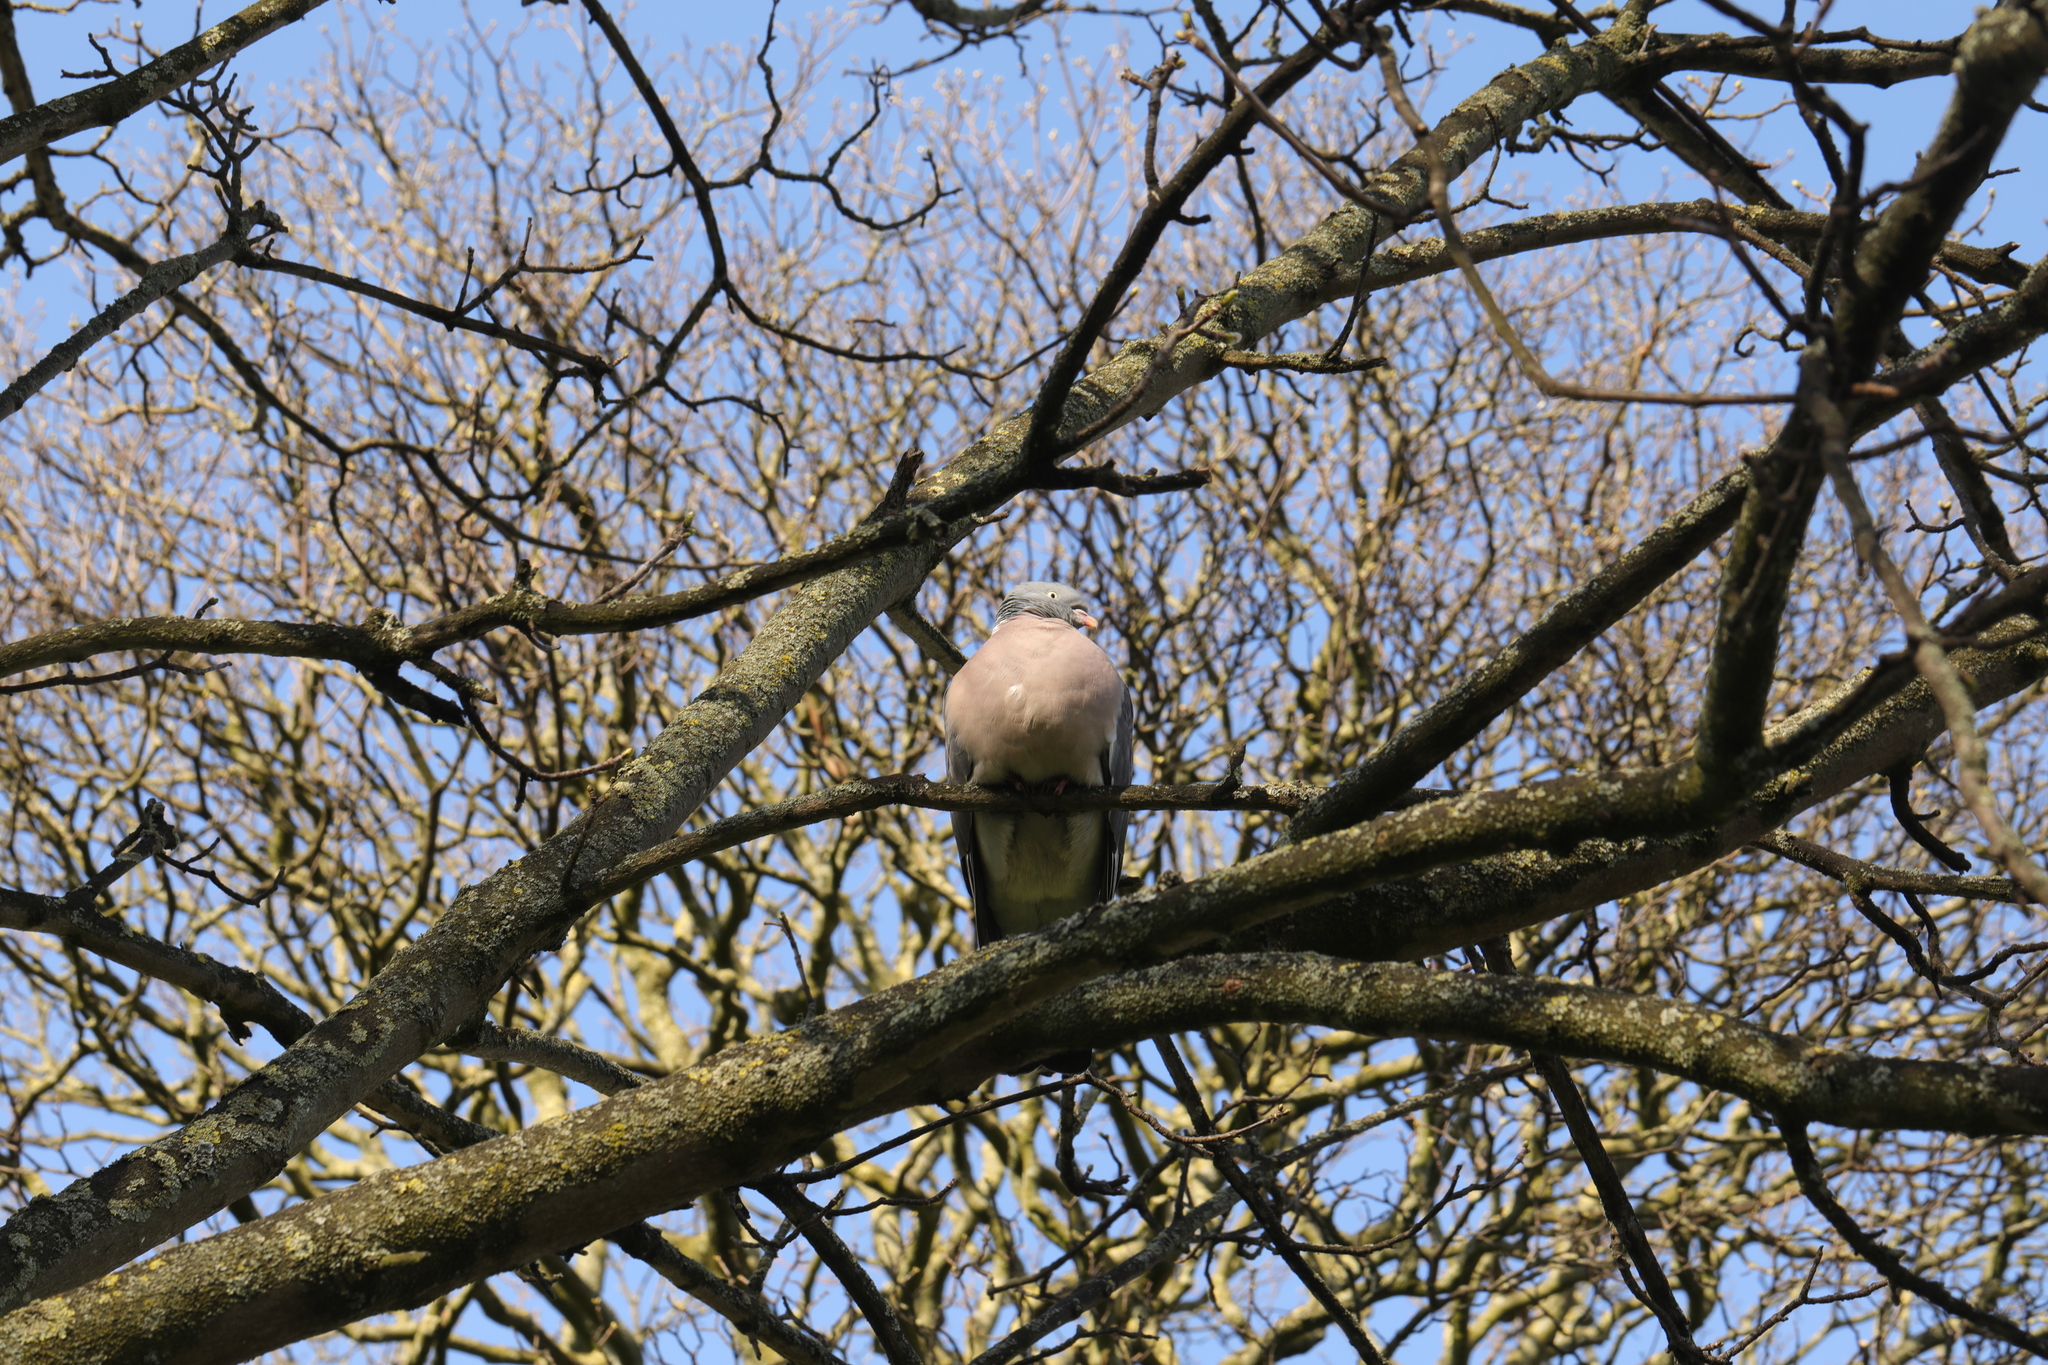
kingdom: Animalia
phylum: Chordata
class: Aves
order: Columbiformes
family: Columbidae
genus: Columba
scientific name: Columba palumbus
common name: Common wood pigeon
